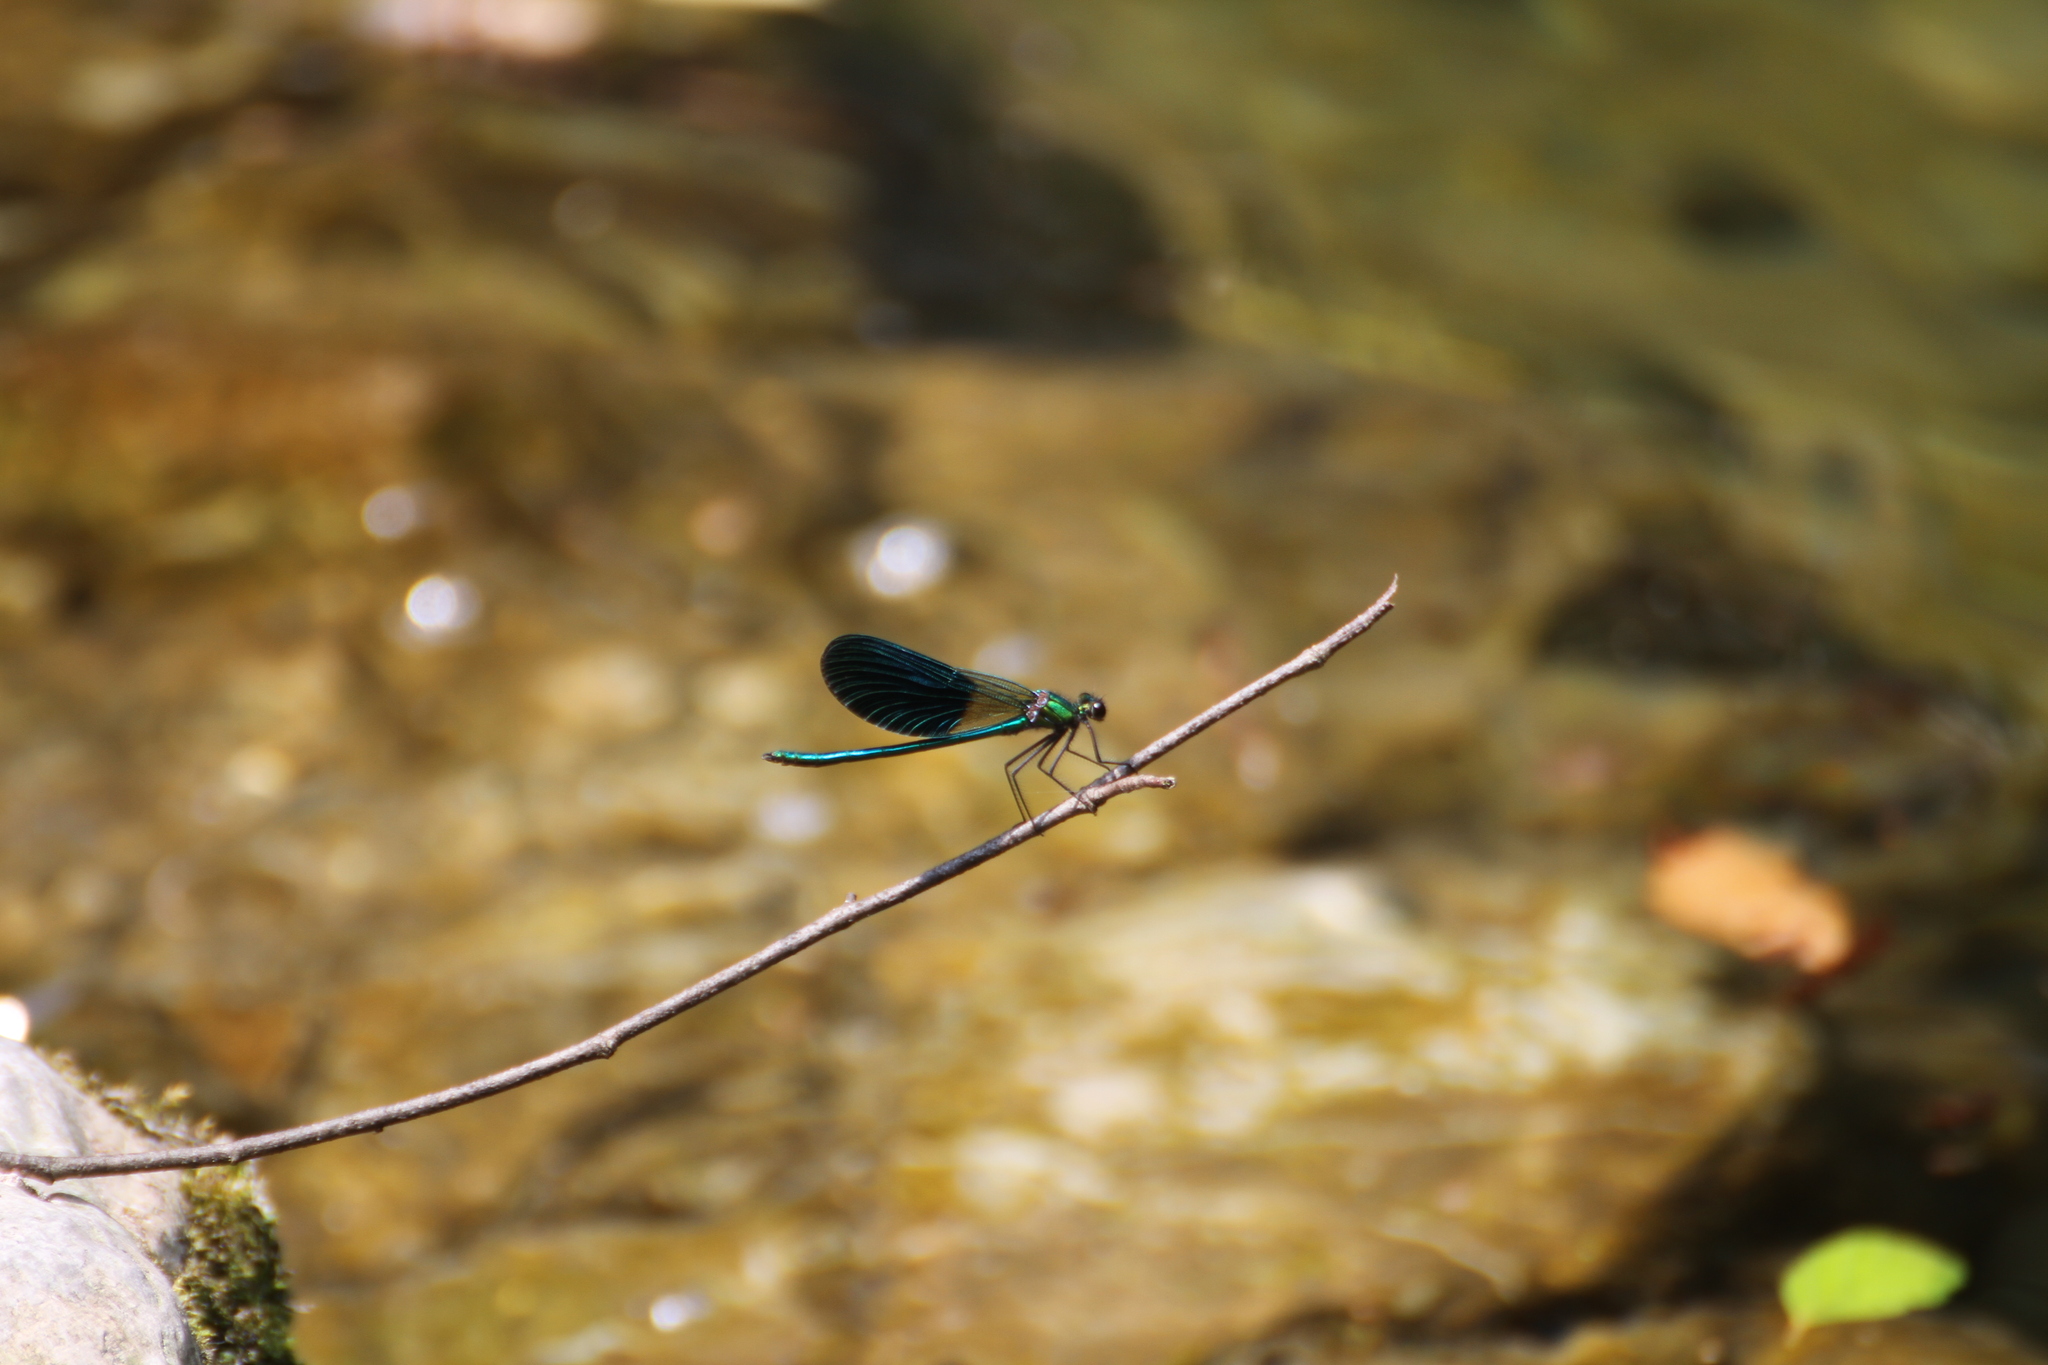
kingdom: Animalia
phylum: Arthropoda
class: Insecta
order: Odonata
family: Calopterygidae
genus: Calopteryx
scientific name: Calopteryx xanthostoma
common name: Western demoiselle
